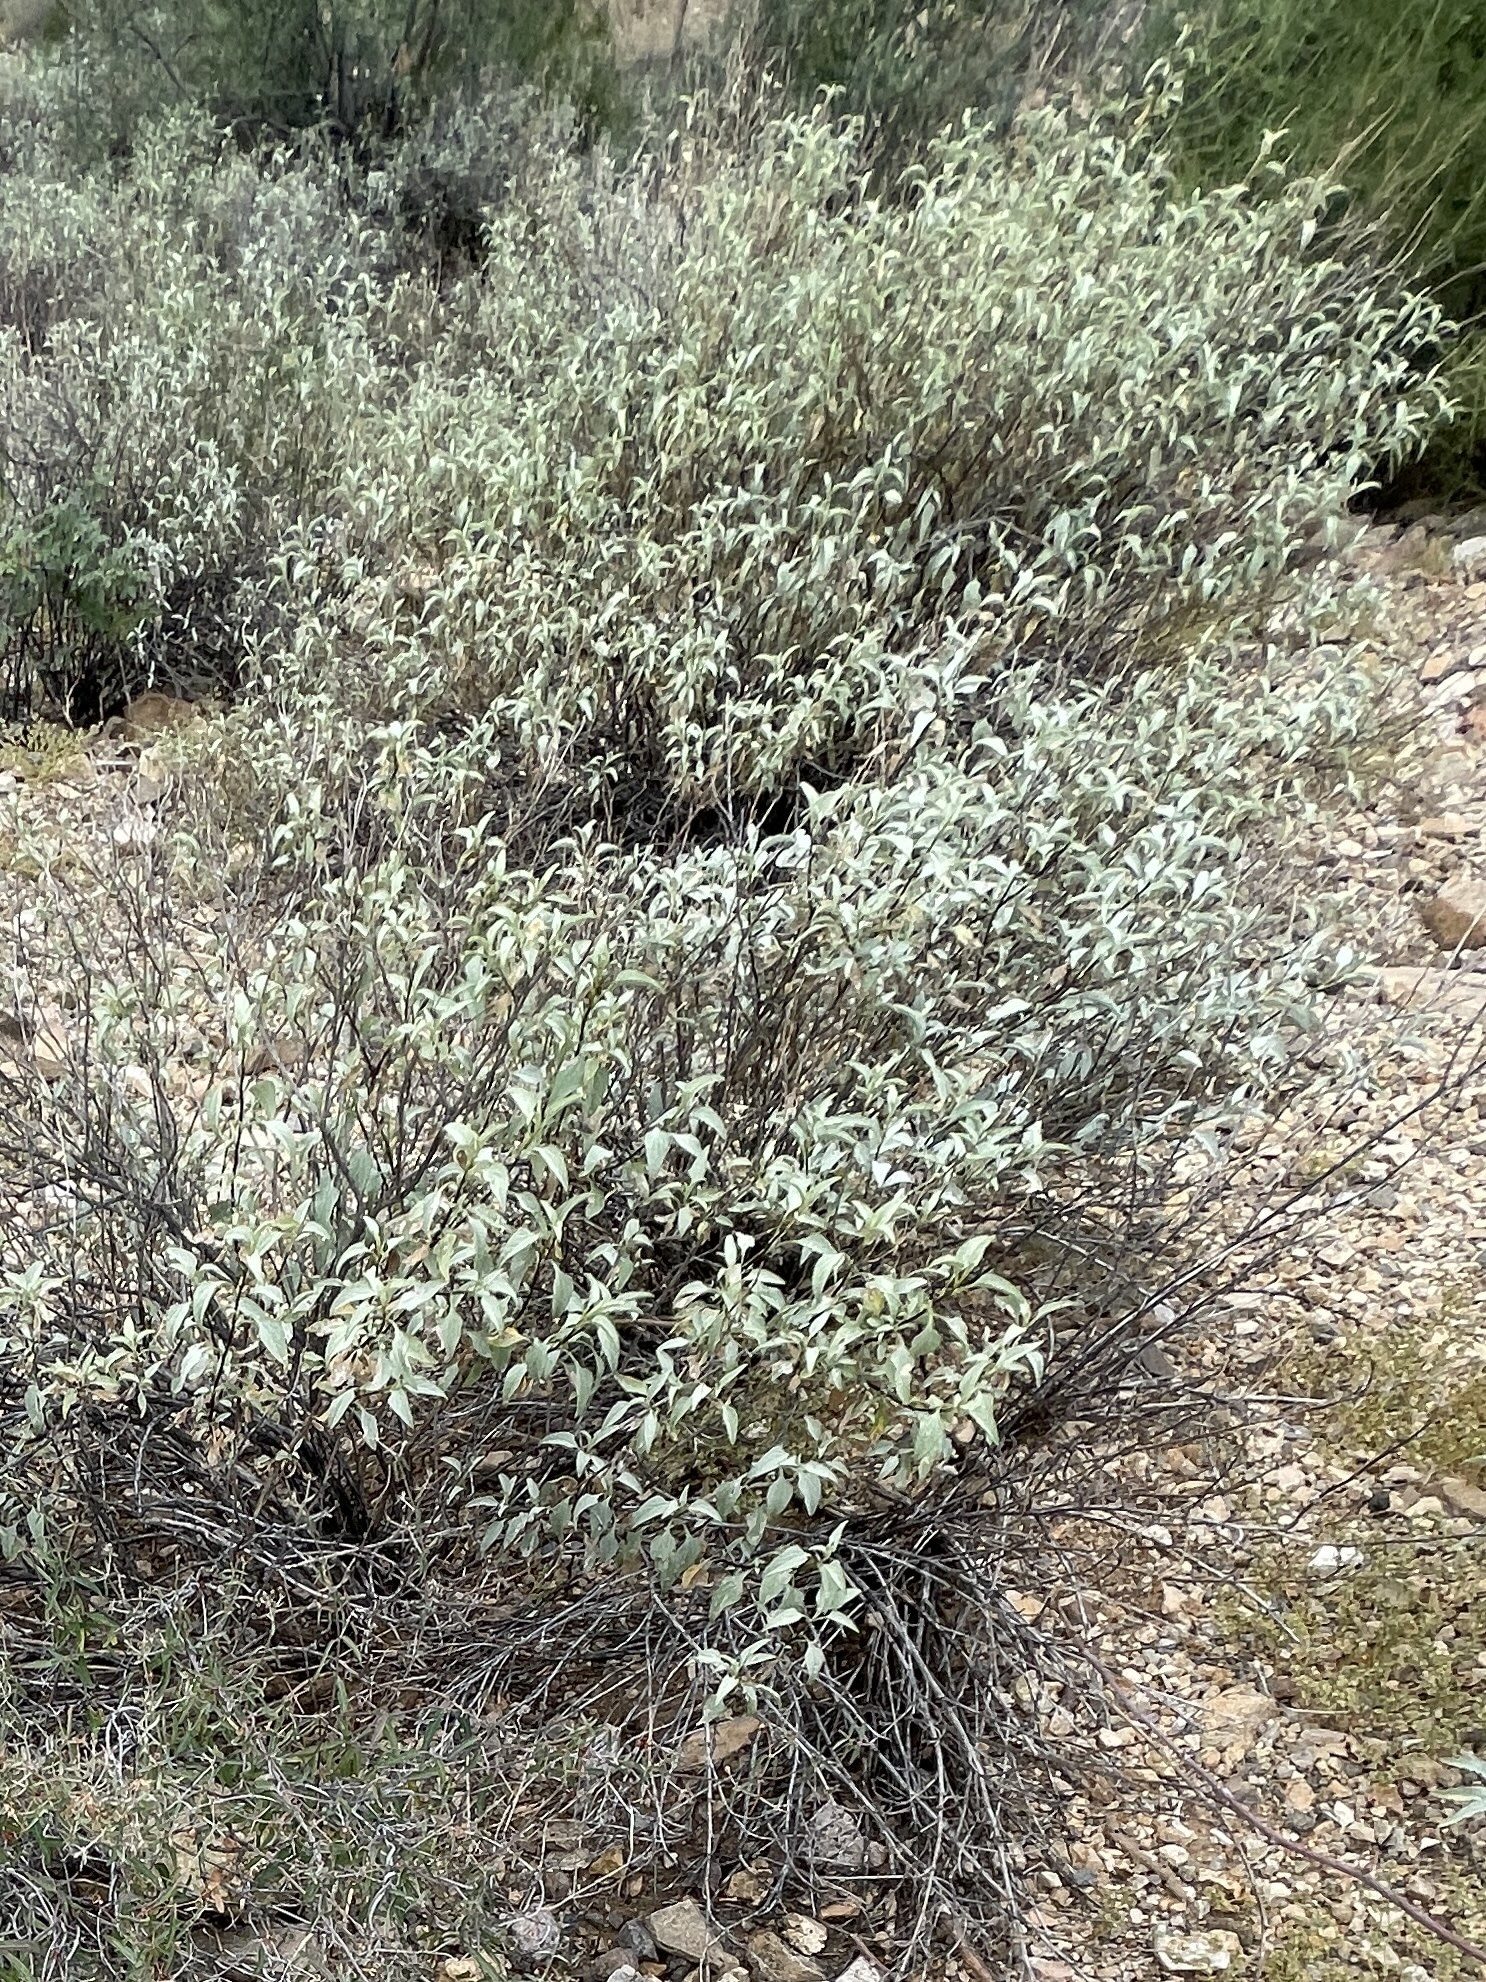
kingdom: Plantae
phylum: Tracheophyta
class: Magnoliopsida
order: Asterales
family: Asteraceae
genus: Ambrosia
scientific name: Ambrosia deltoidea
